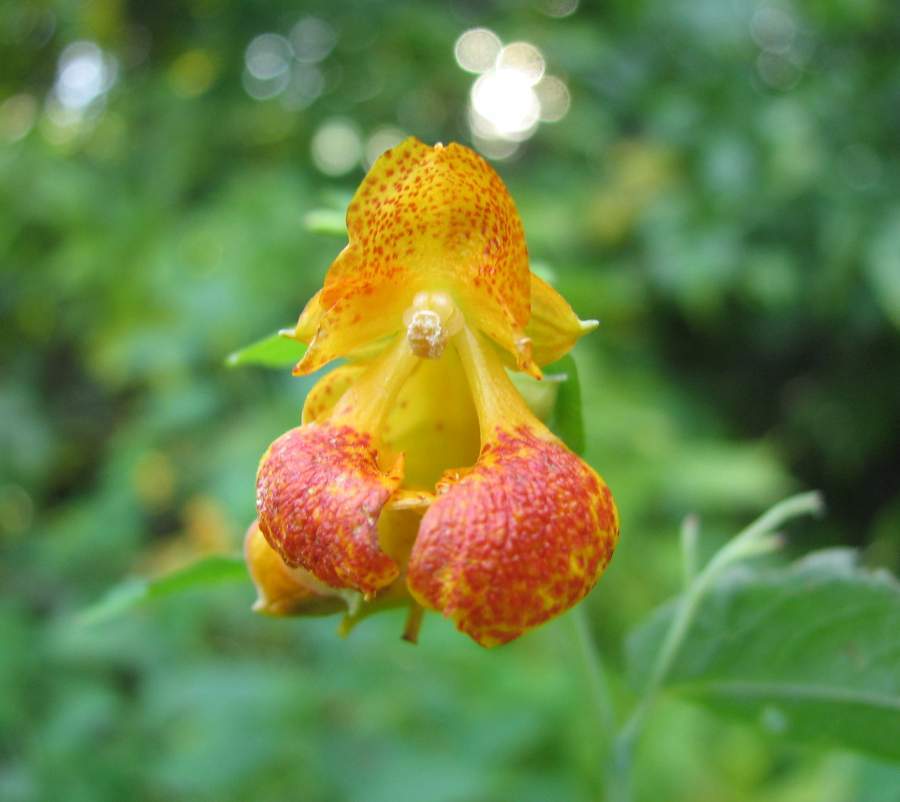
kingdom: Plantae
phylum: Tracheophyta
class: Magnoliopsida
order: Ericales
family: Balsaminaceae
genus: Impatiens
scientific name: Impatiens capensis
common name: Orange balsam
